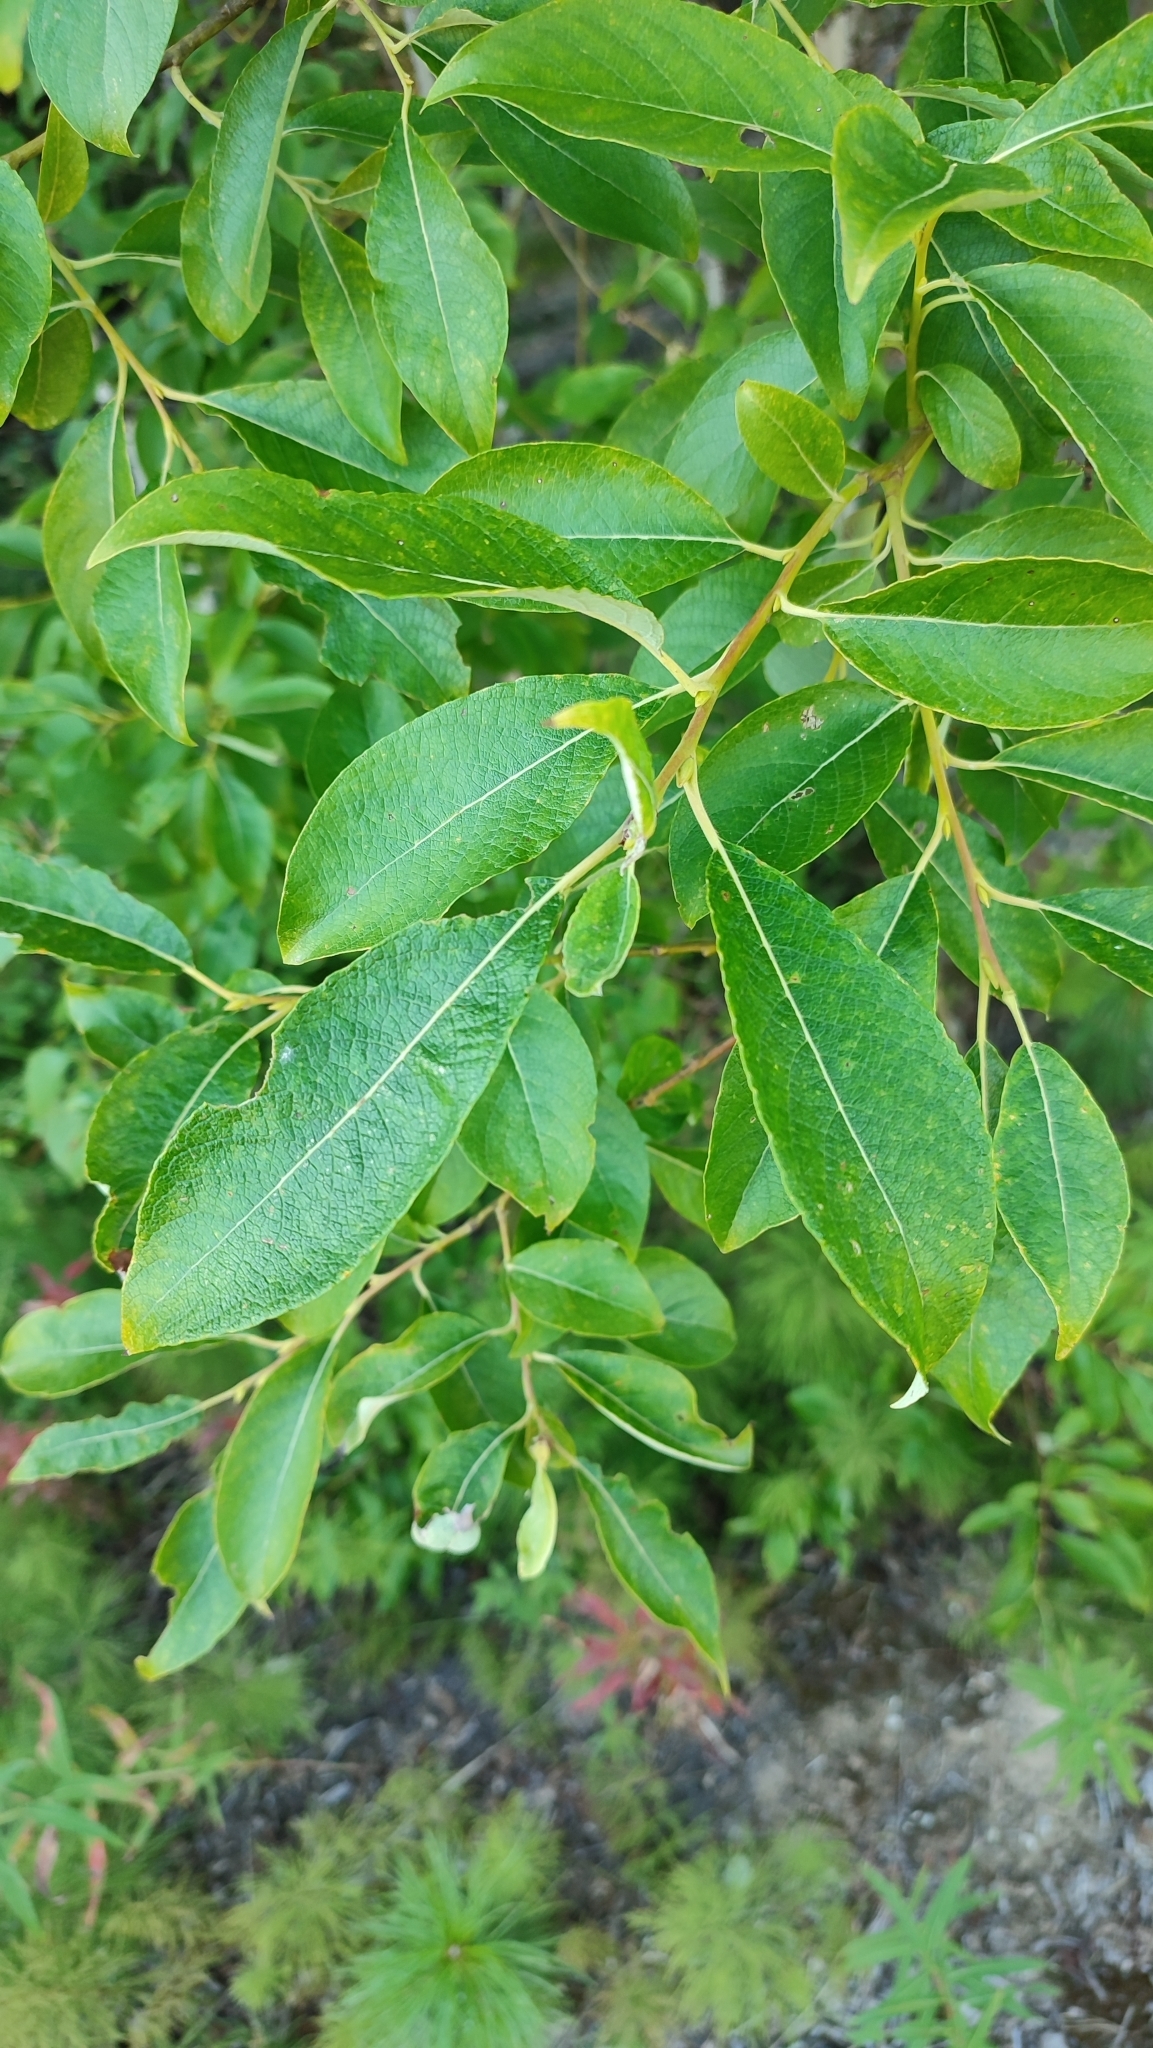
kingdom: Plantae
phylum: Tracheophyta
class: Magnoliopsida
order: Malpighiales
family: Salicaceae
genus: Salix
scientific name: Salix caprea
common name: Goat willow
